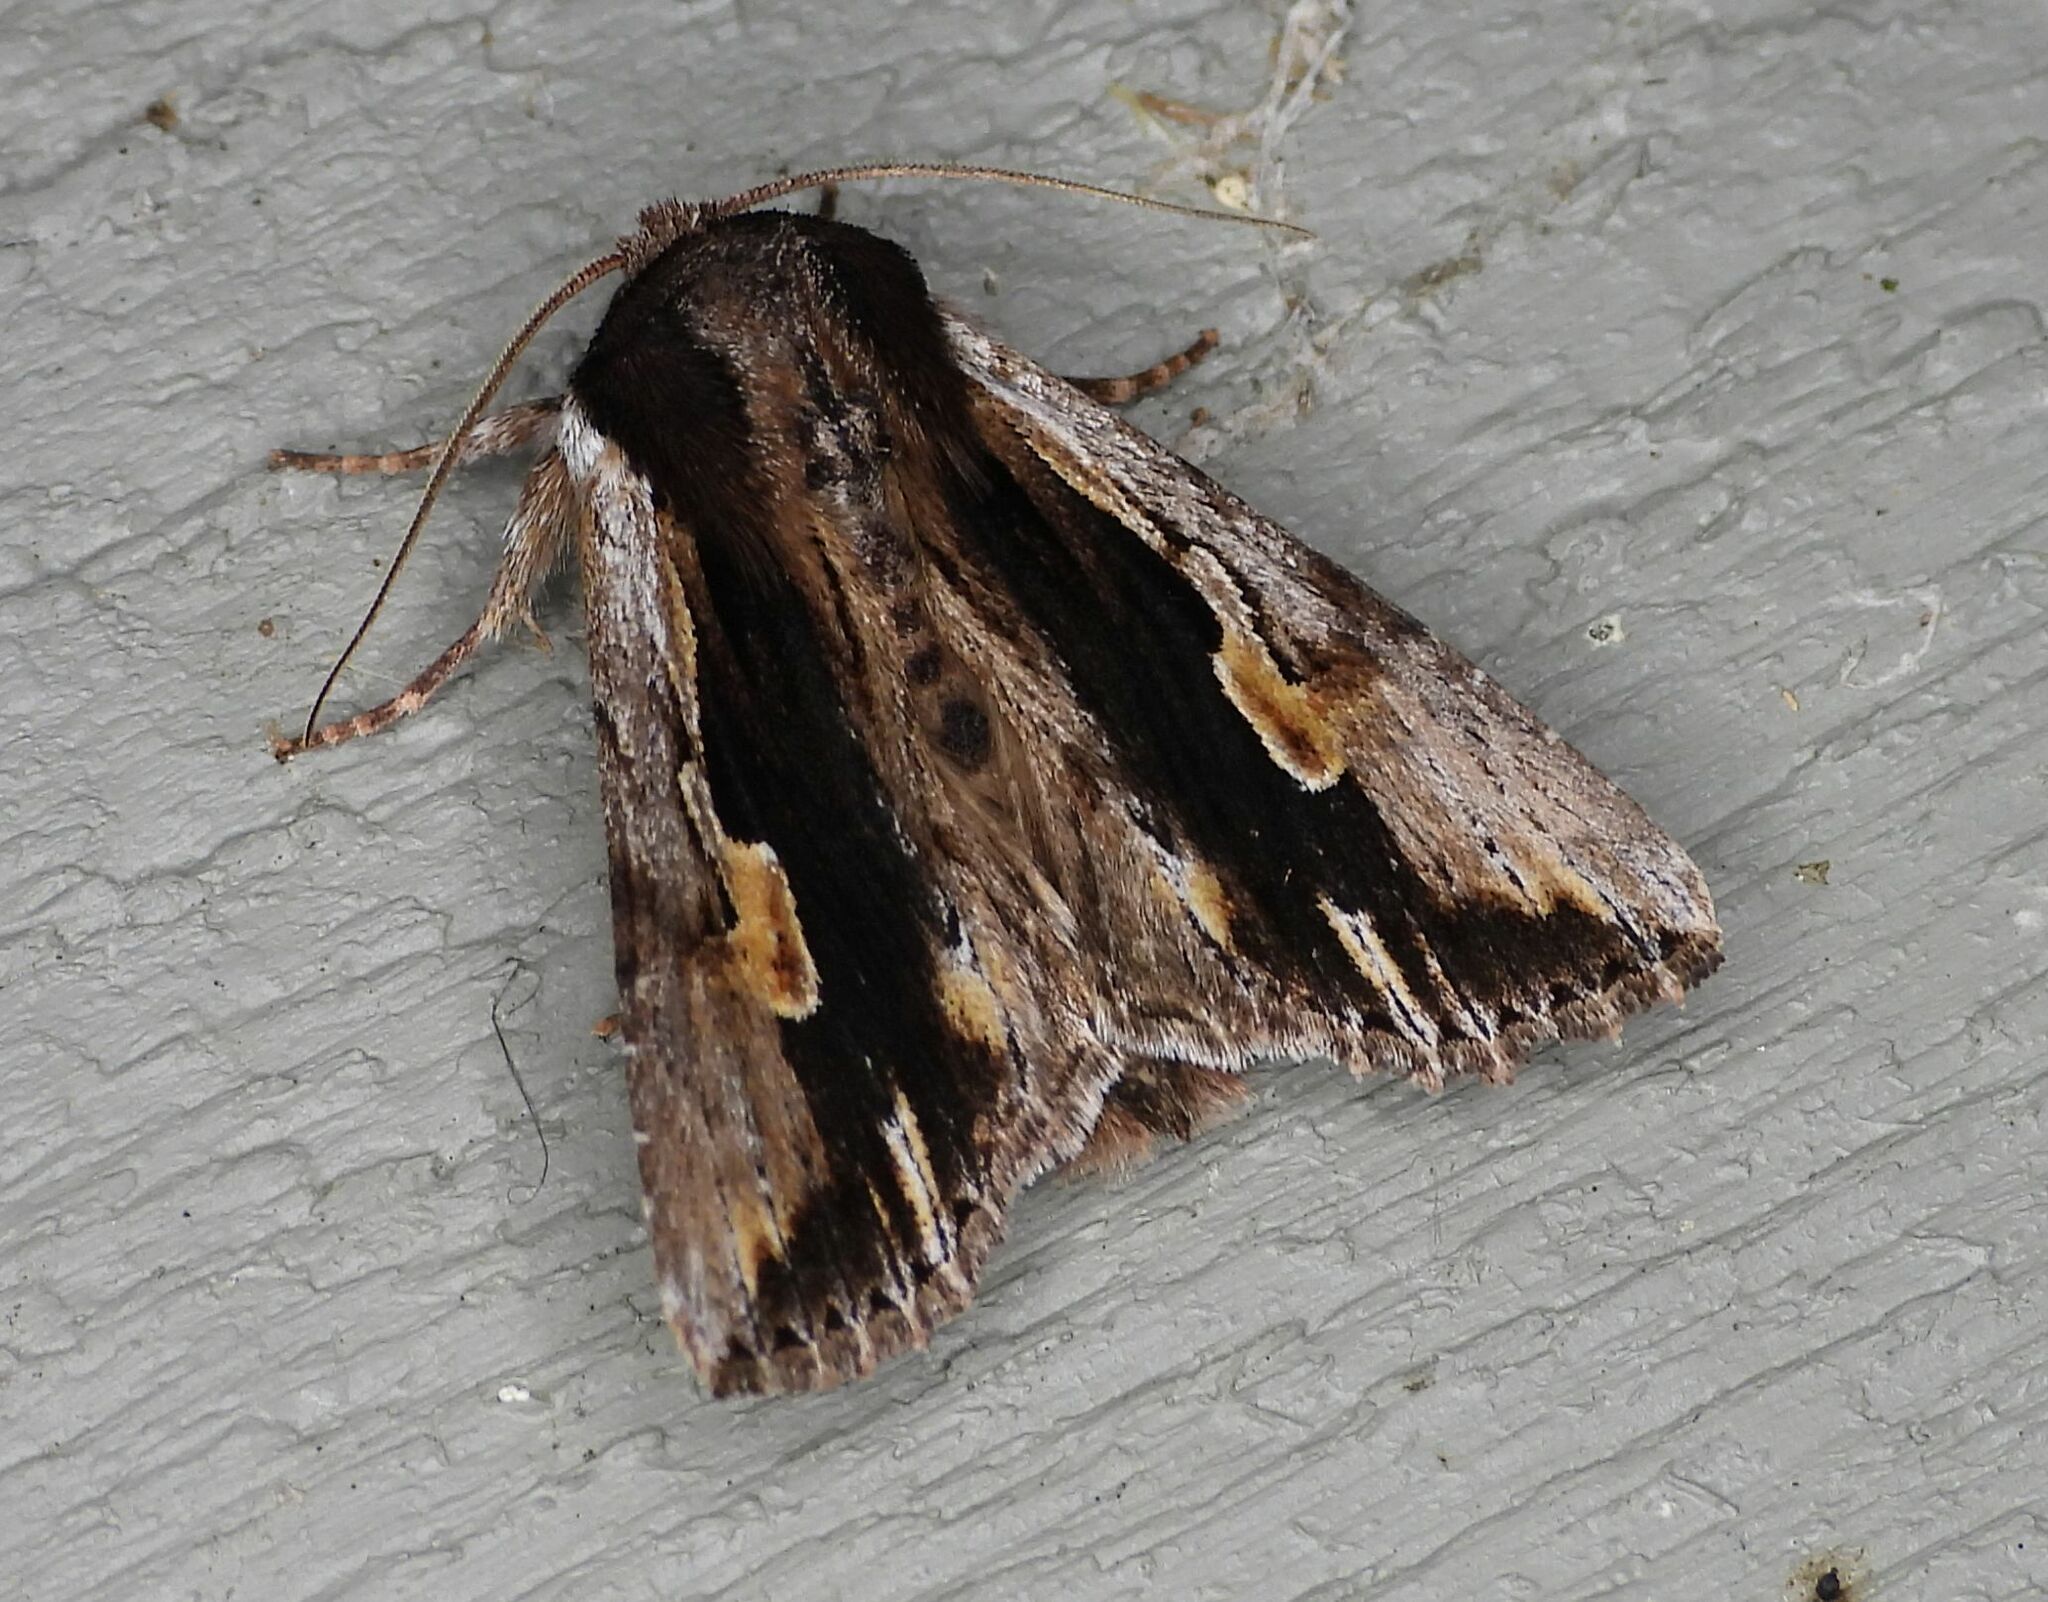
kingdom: Animalia
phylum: Arthropoda
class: Insecta
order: Lepidoptera
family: Noctuidae
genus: Achatia
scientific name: Achatia evicta
